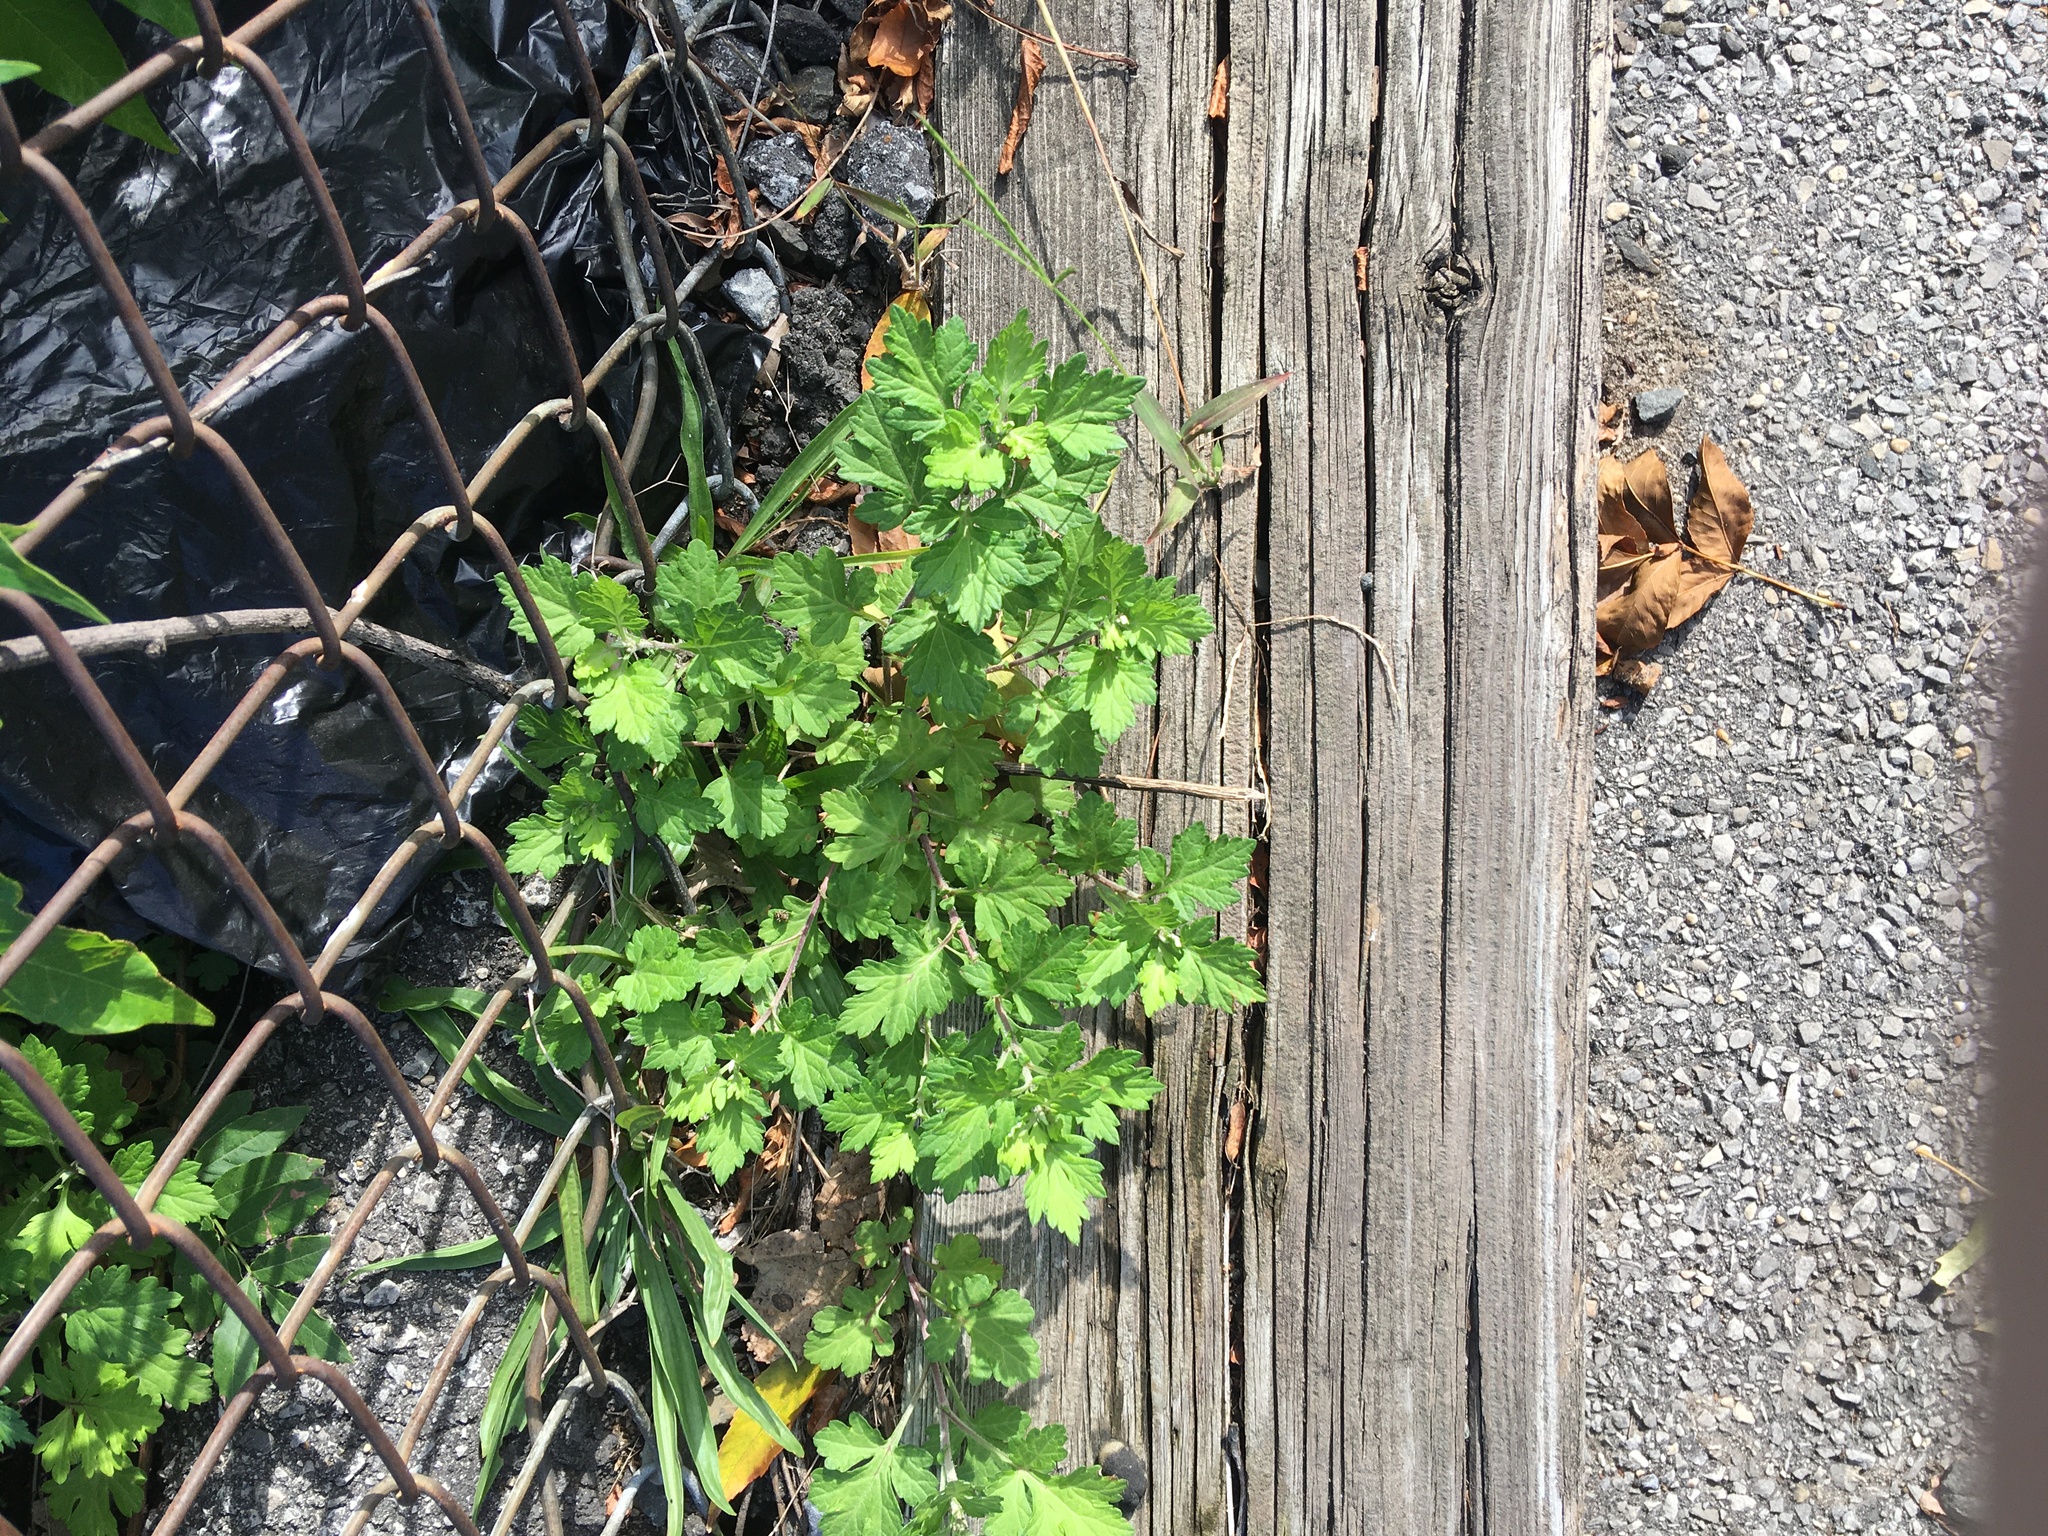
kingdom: Plantae
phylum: Tracheophyta
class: Magnoliopsida
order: Asterales
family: Asteraceae
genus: Artemisia
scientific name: Artemisia vulgaris
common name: Mugwort
